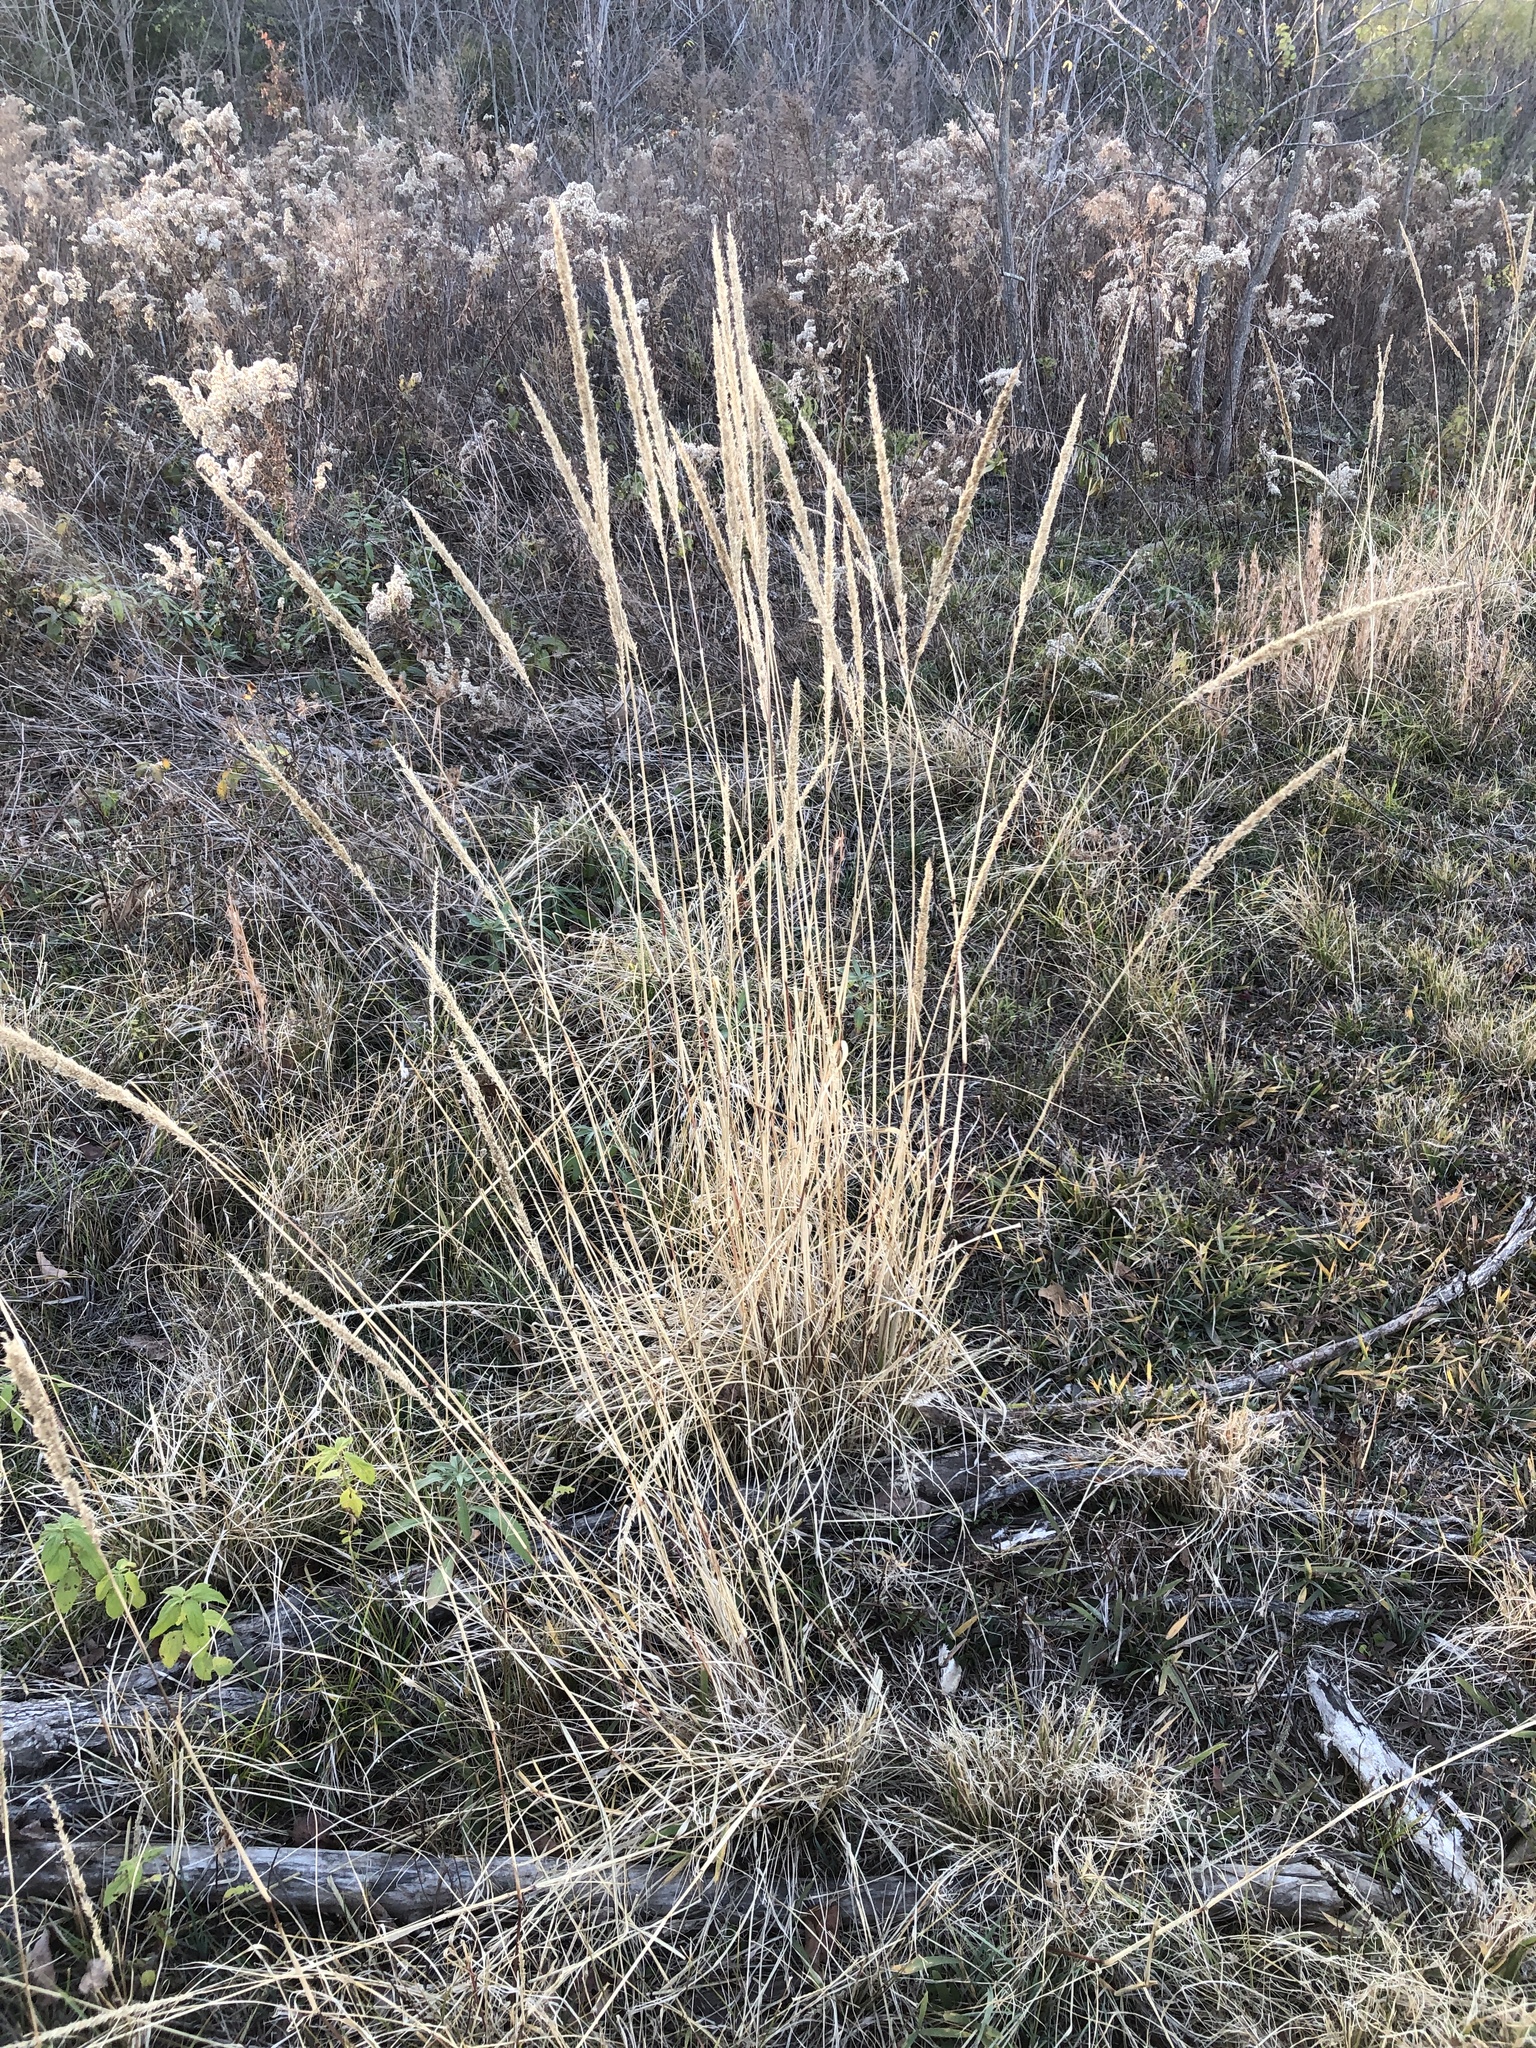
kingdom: Plantae
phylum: Tracheophyta
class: Liliopsida
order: Poales
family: Poaceae
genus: Tridens
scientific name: Tridens strictus
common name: Long-spike tridens
